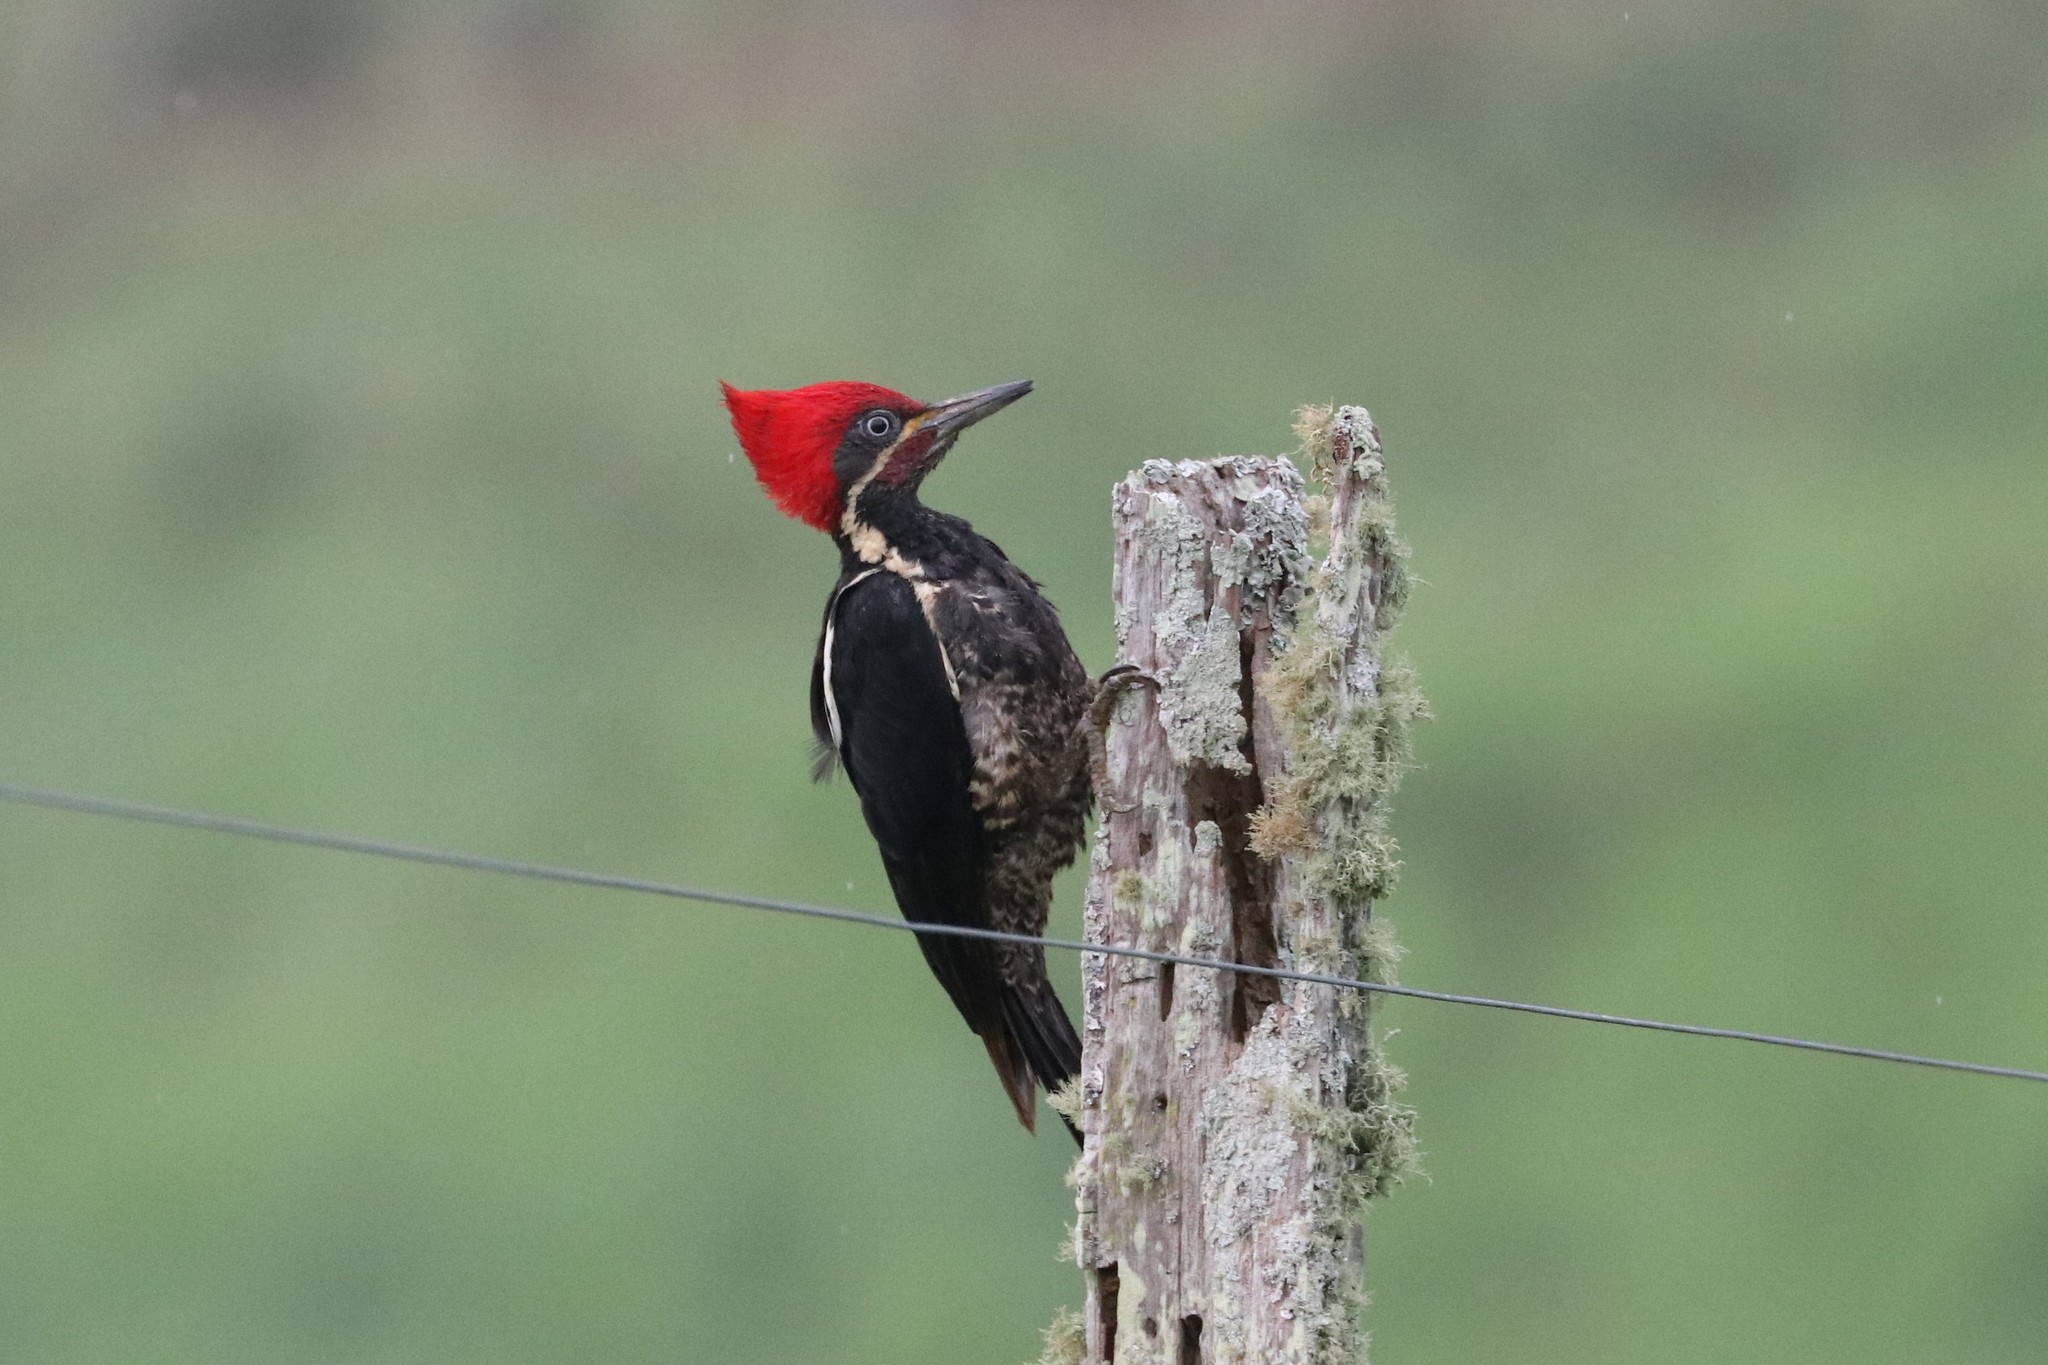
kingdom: Animalia
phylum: Chordata
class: Aves
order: Piciformes
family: Picidae
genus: Dryocopus
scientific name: Dryocopus lineatus
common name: Lineated woodpecker
